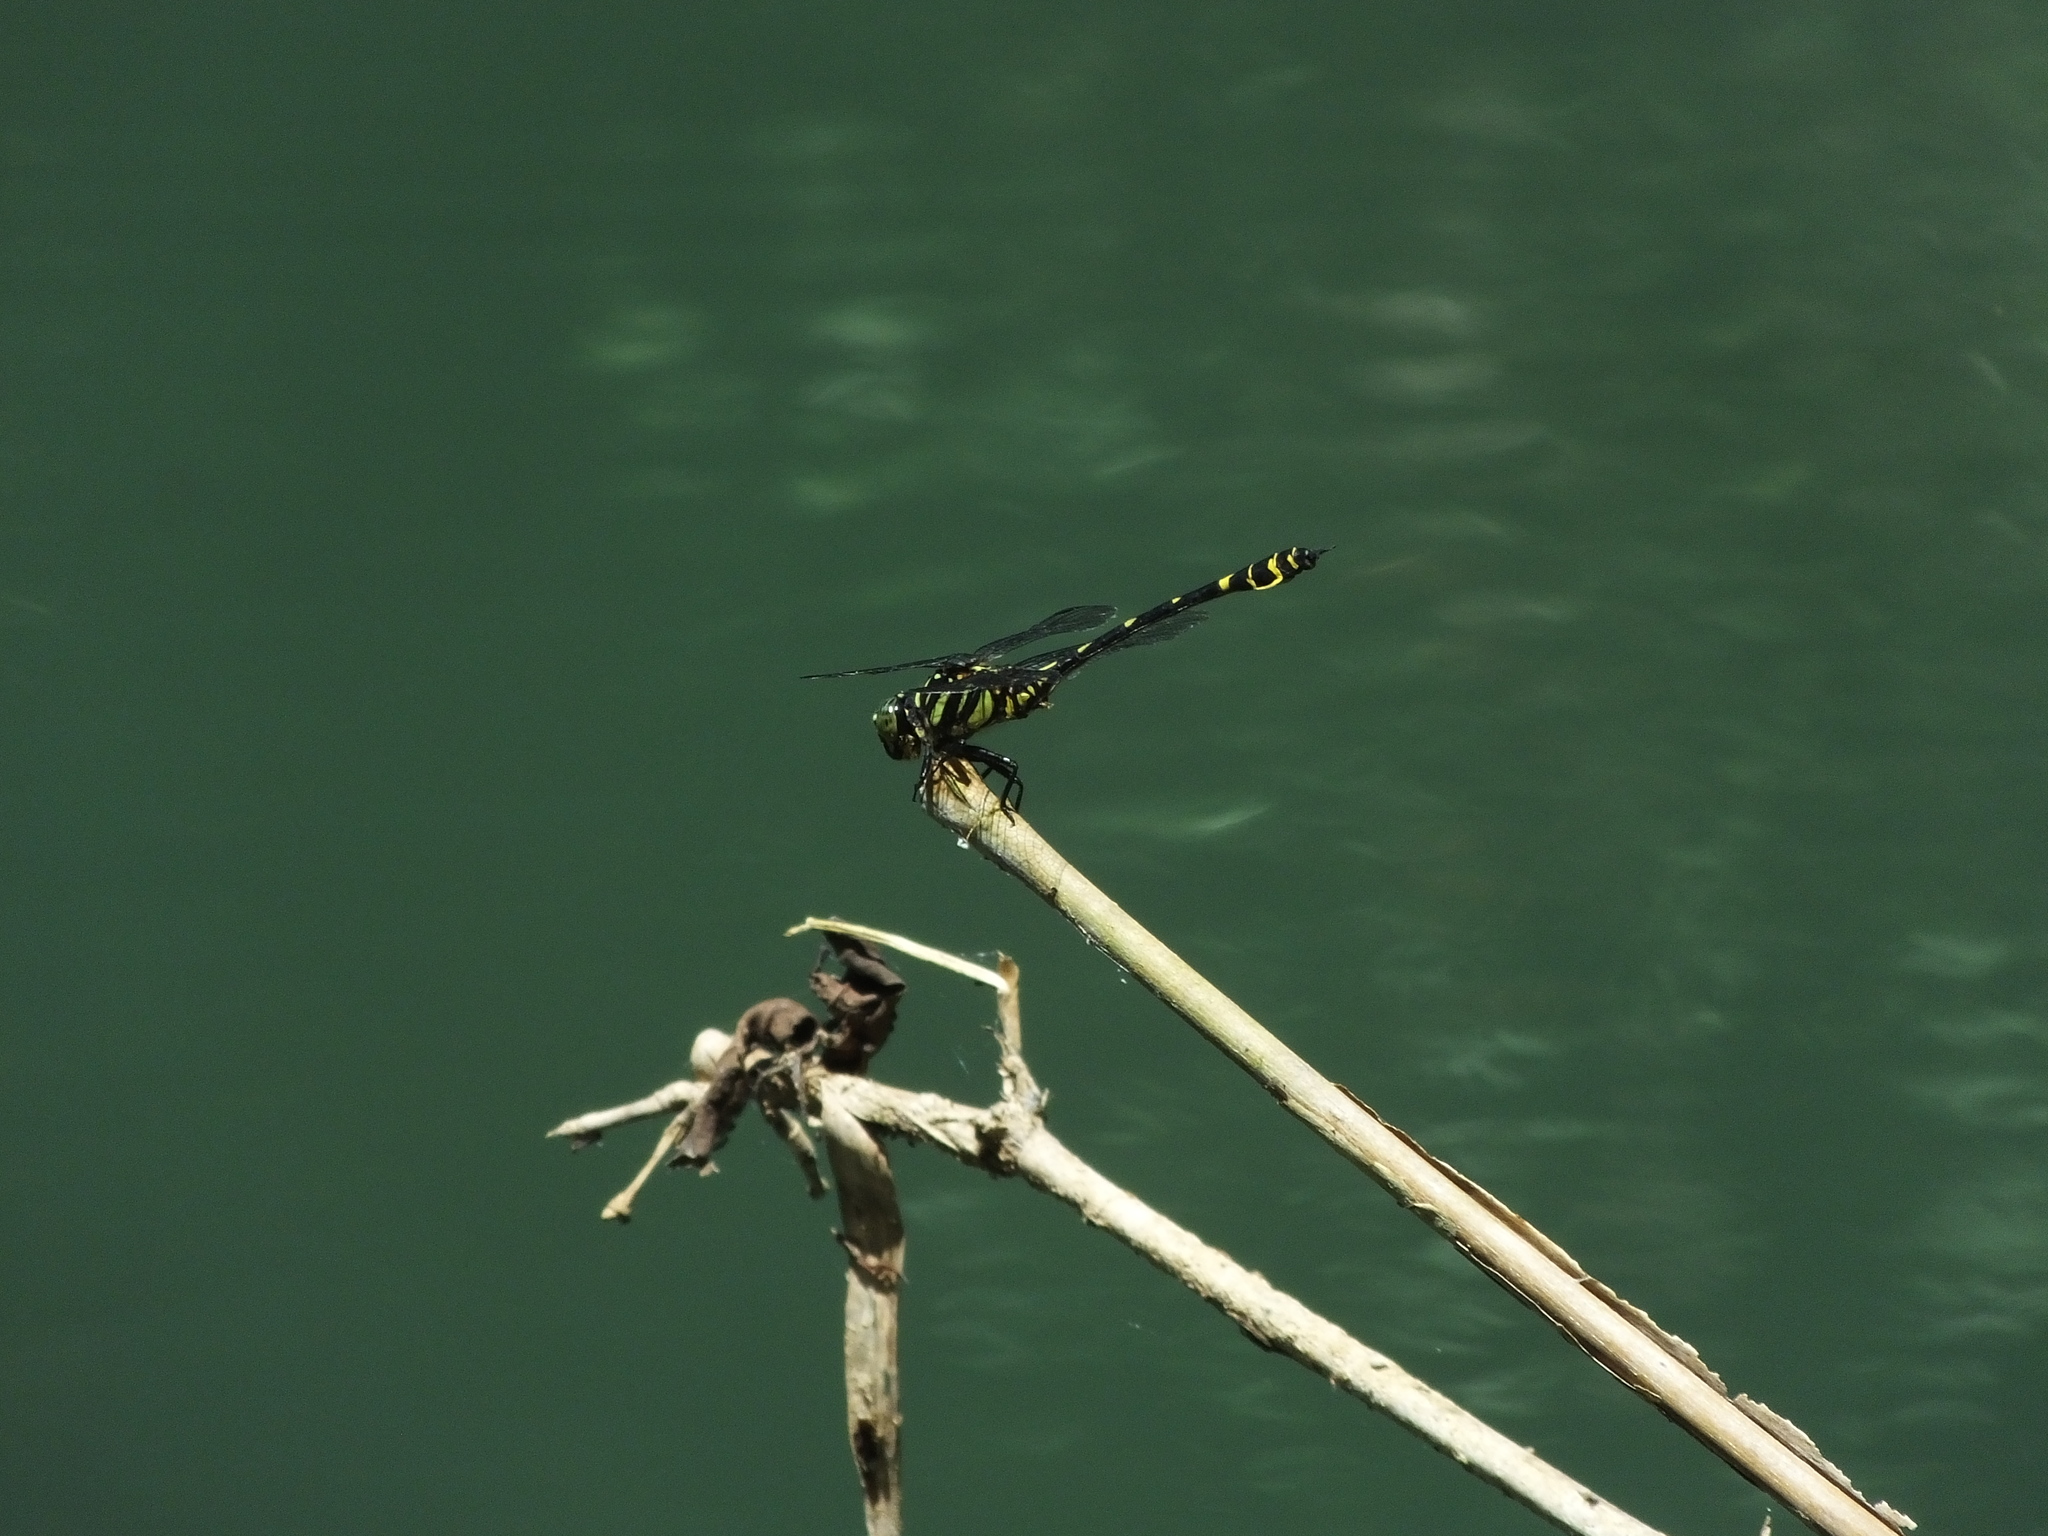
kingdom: Animalia
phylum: Arthropoda
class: Insecta
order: Odonata
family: Gomphidae
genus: Ictinogomphus
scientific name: Ictinogomphus celebensis
